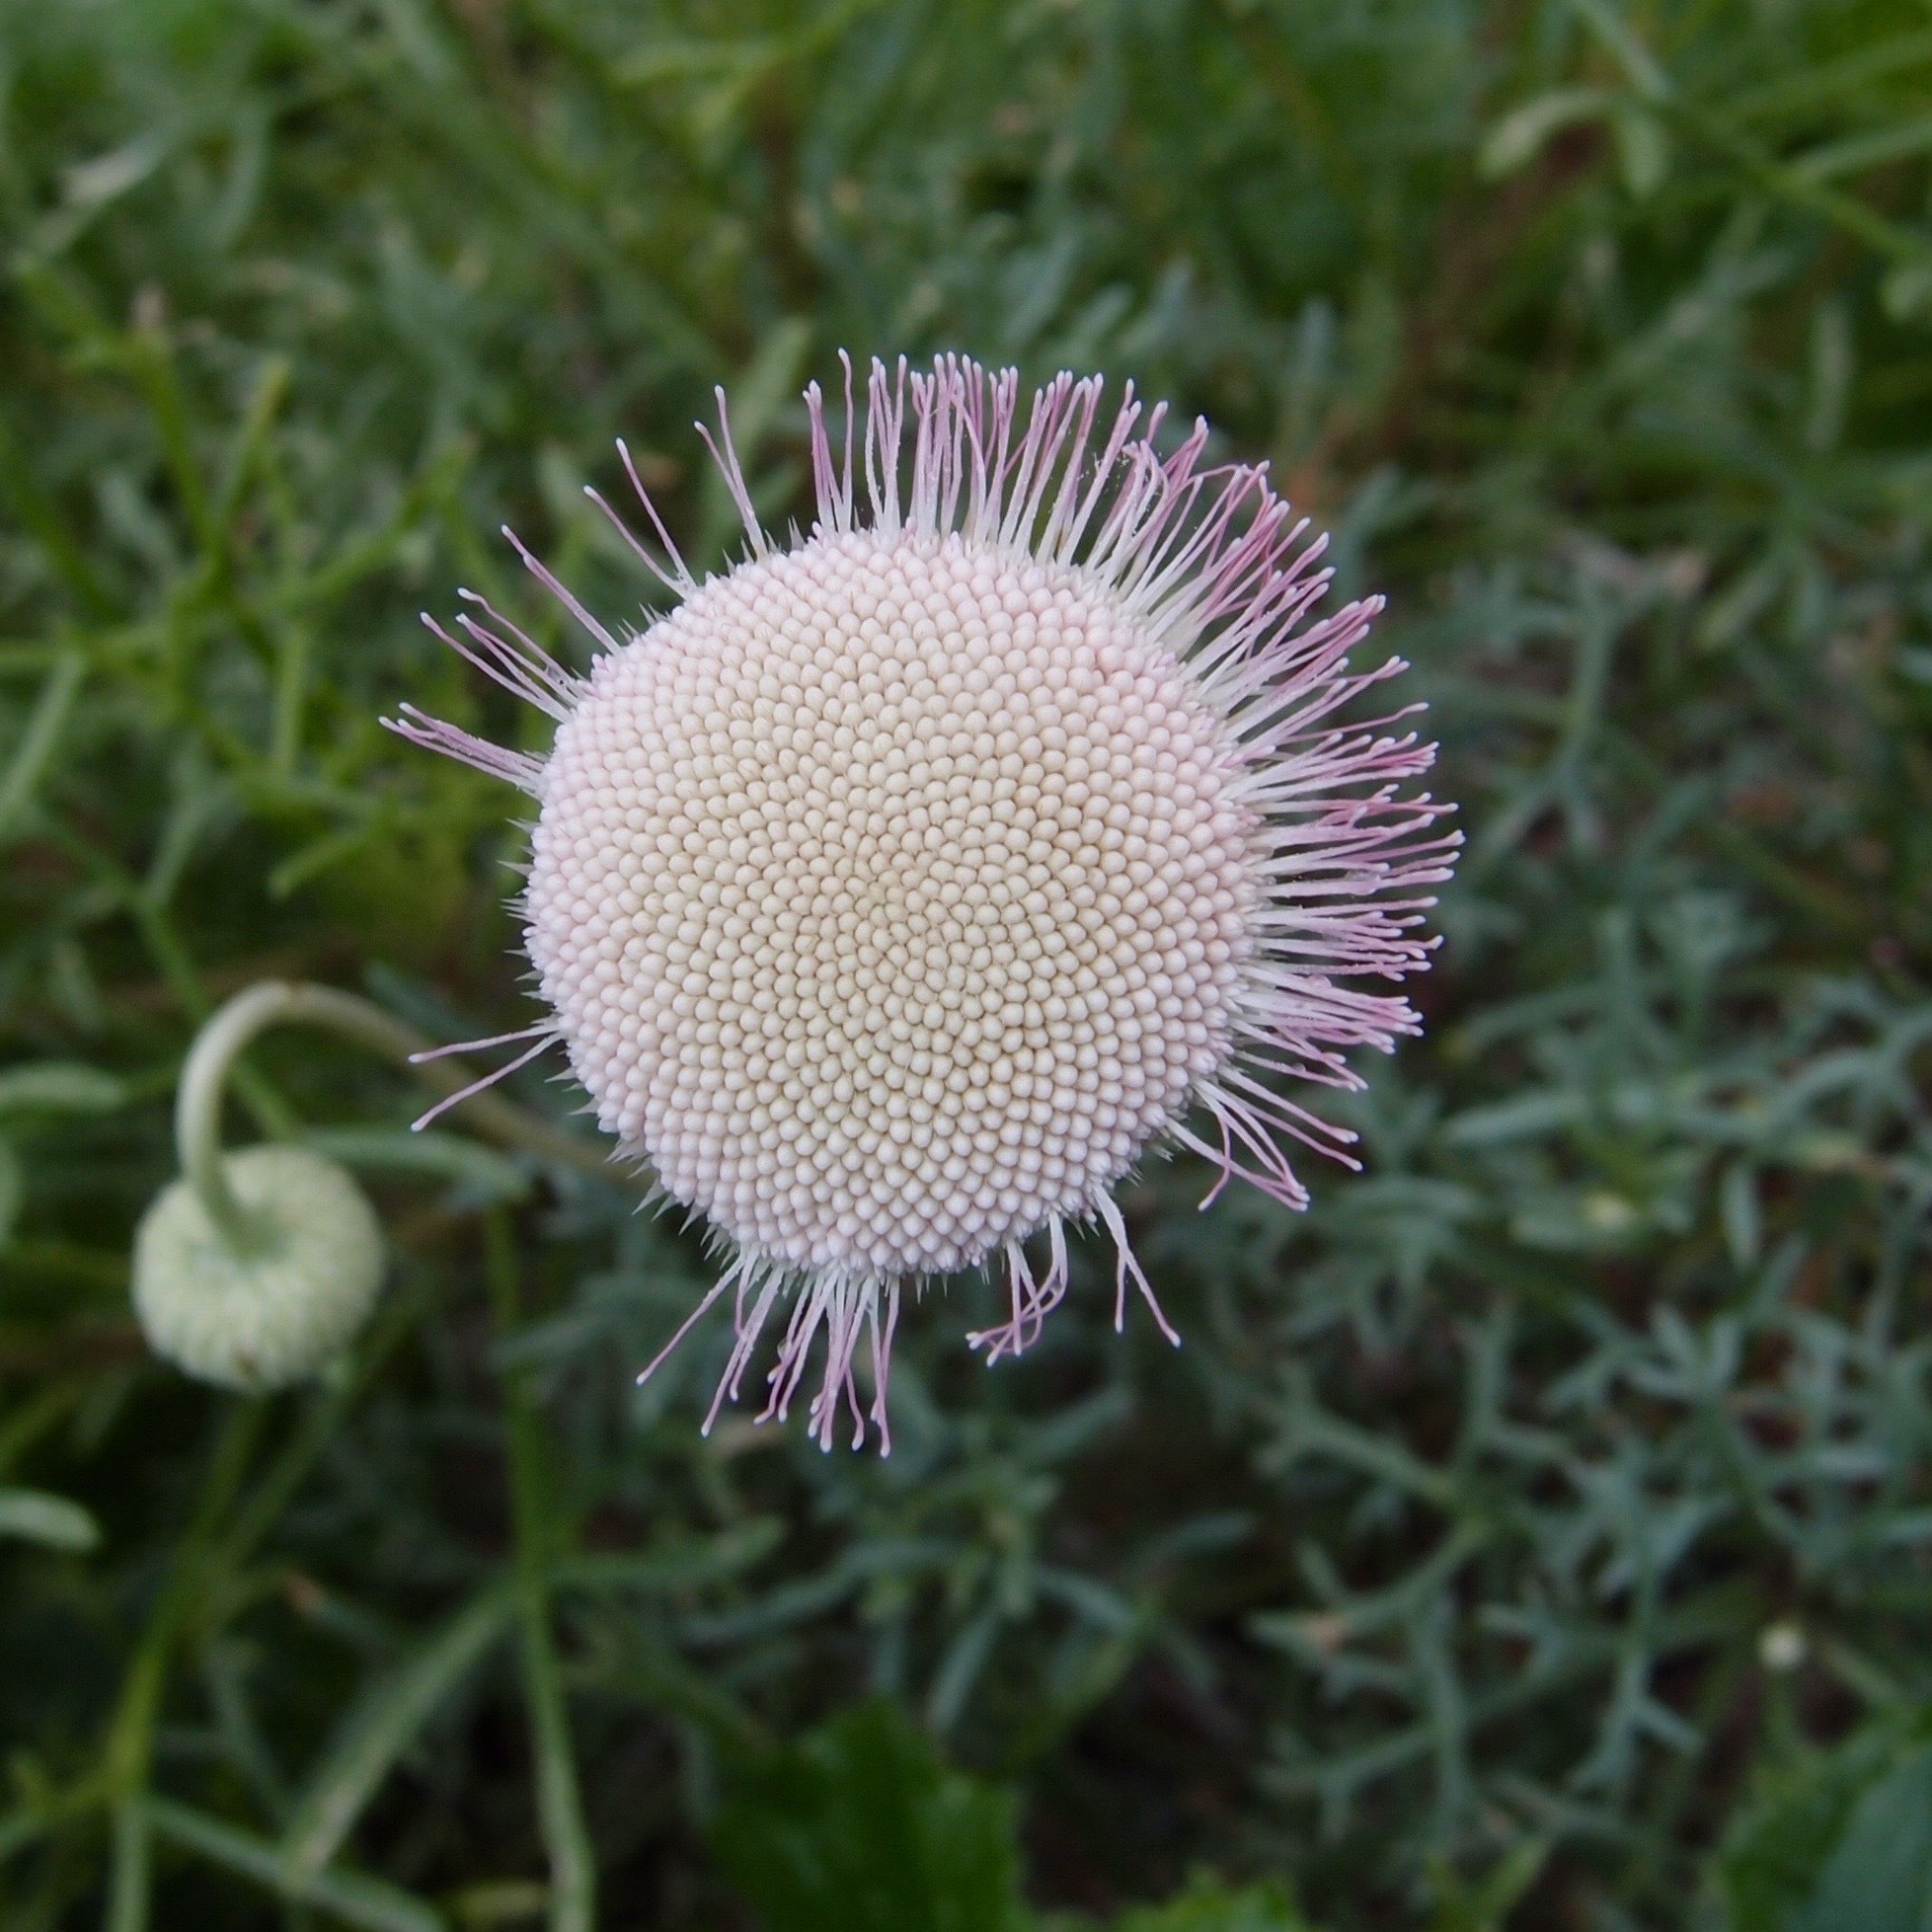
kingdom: Plantae
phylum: Tracheophyta
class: Magnoliopsida
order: Asterales
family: Asteraceae
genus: Hofmeisteria
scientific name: Hofmeisteria crassifolia
